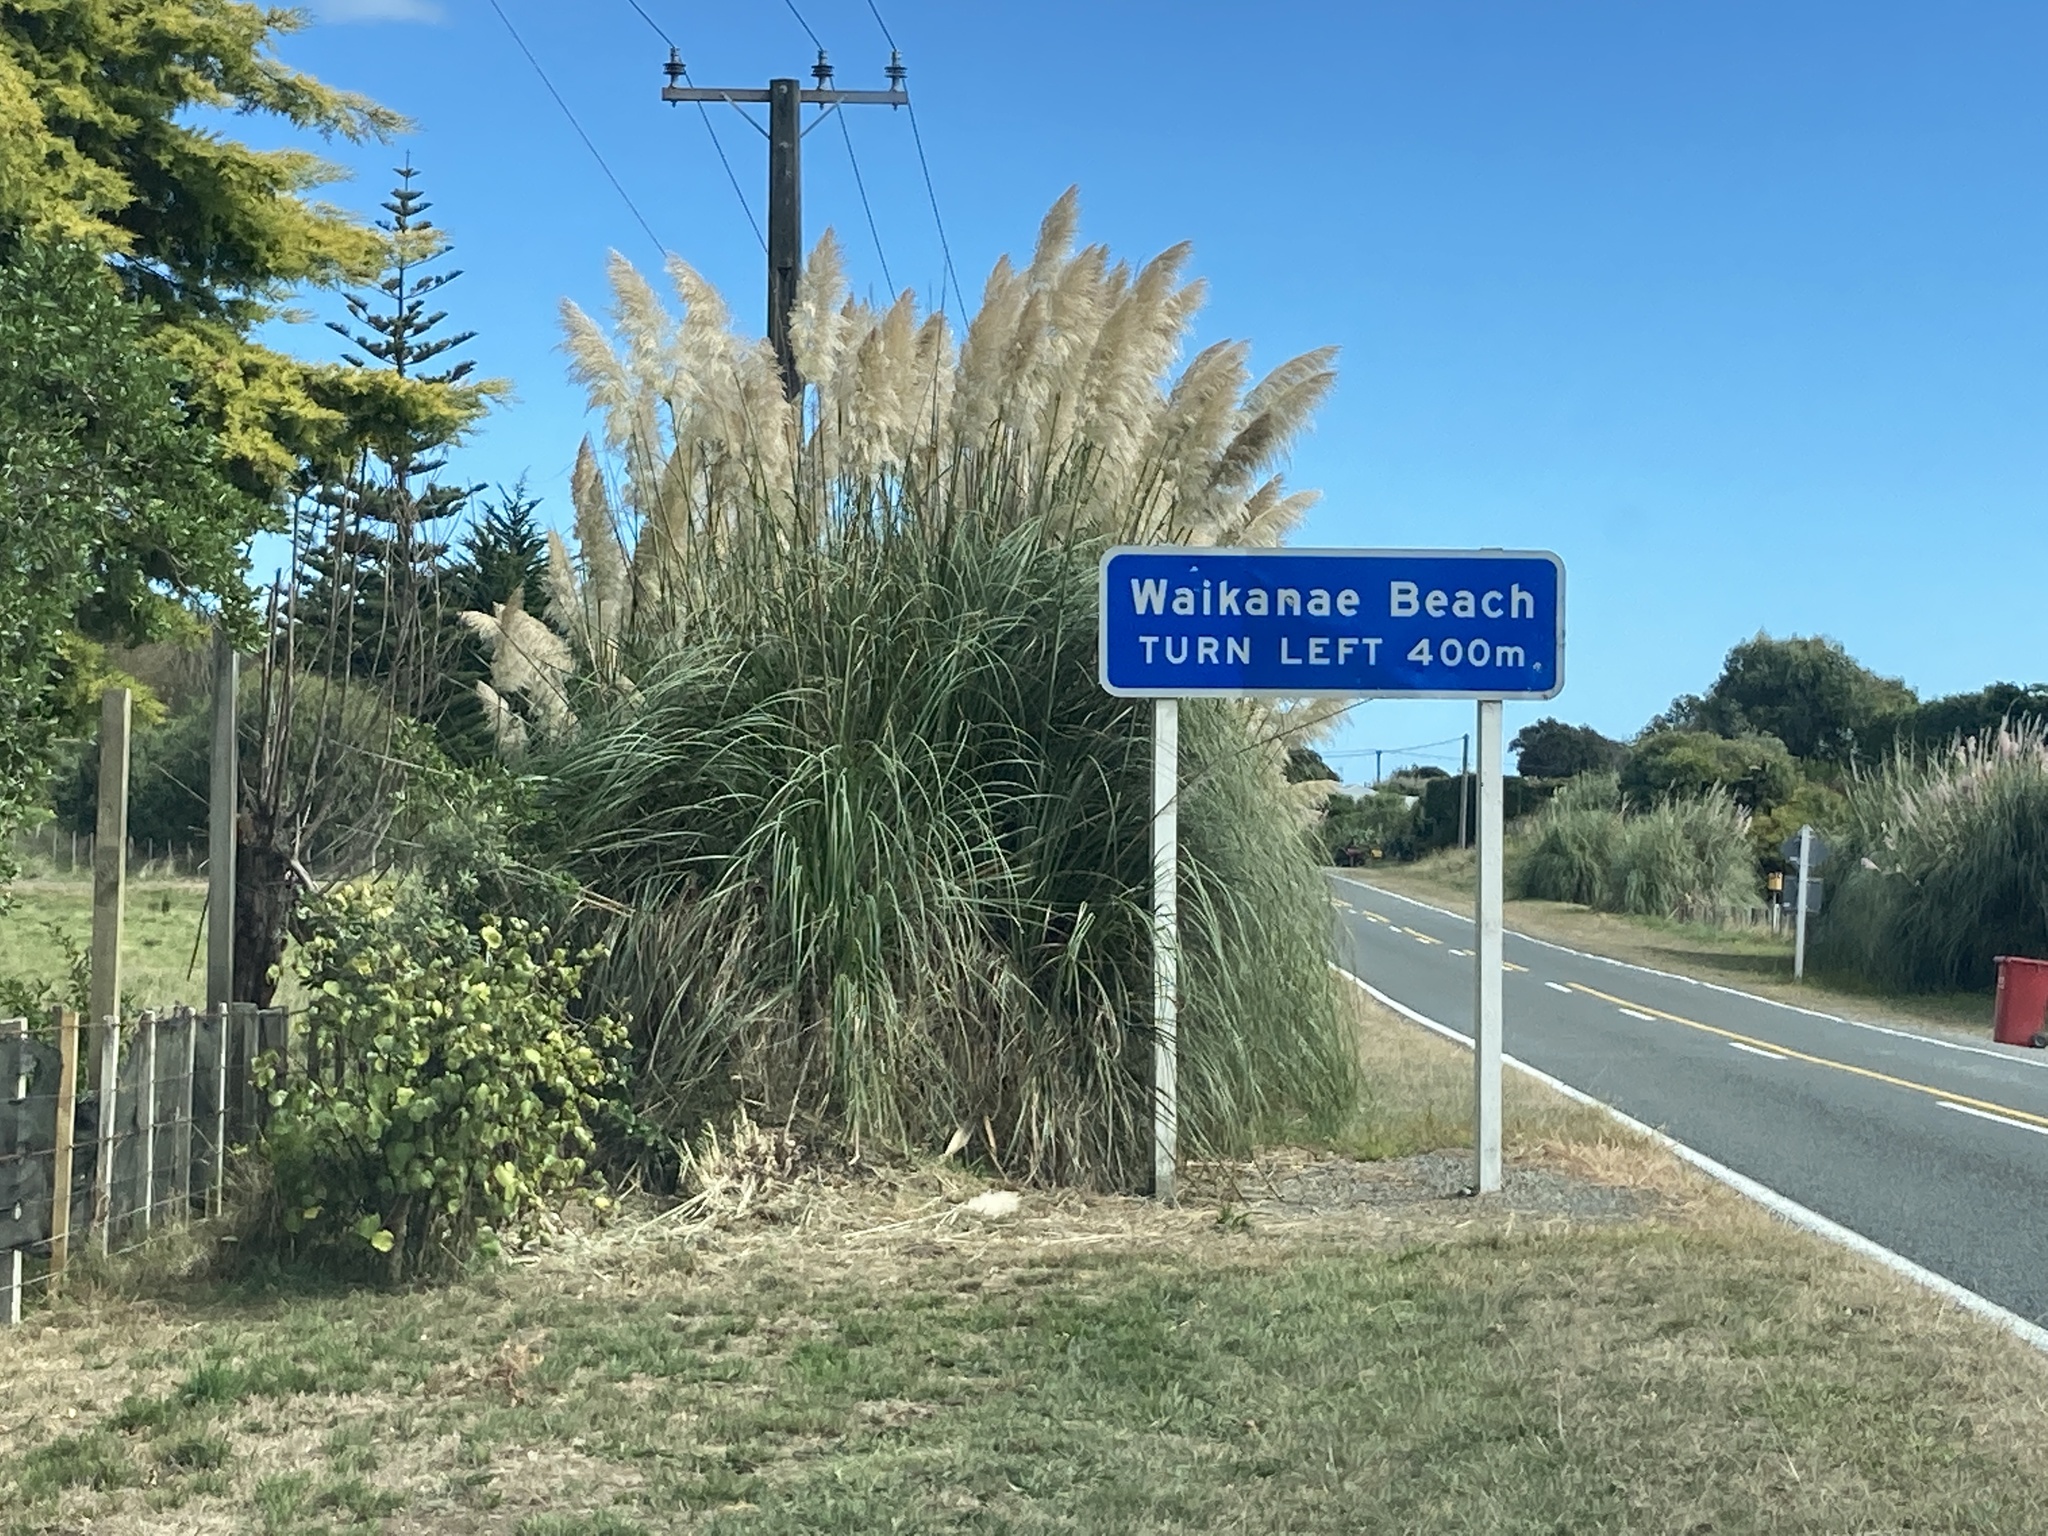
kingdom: Plantae
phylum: Tracheophyta
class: Liliopsida
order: Poales
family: Poaceae
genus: Cortaderia
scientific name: Cortaderia selloana
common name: Uruguayan pampas grass
